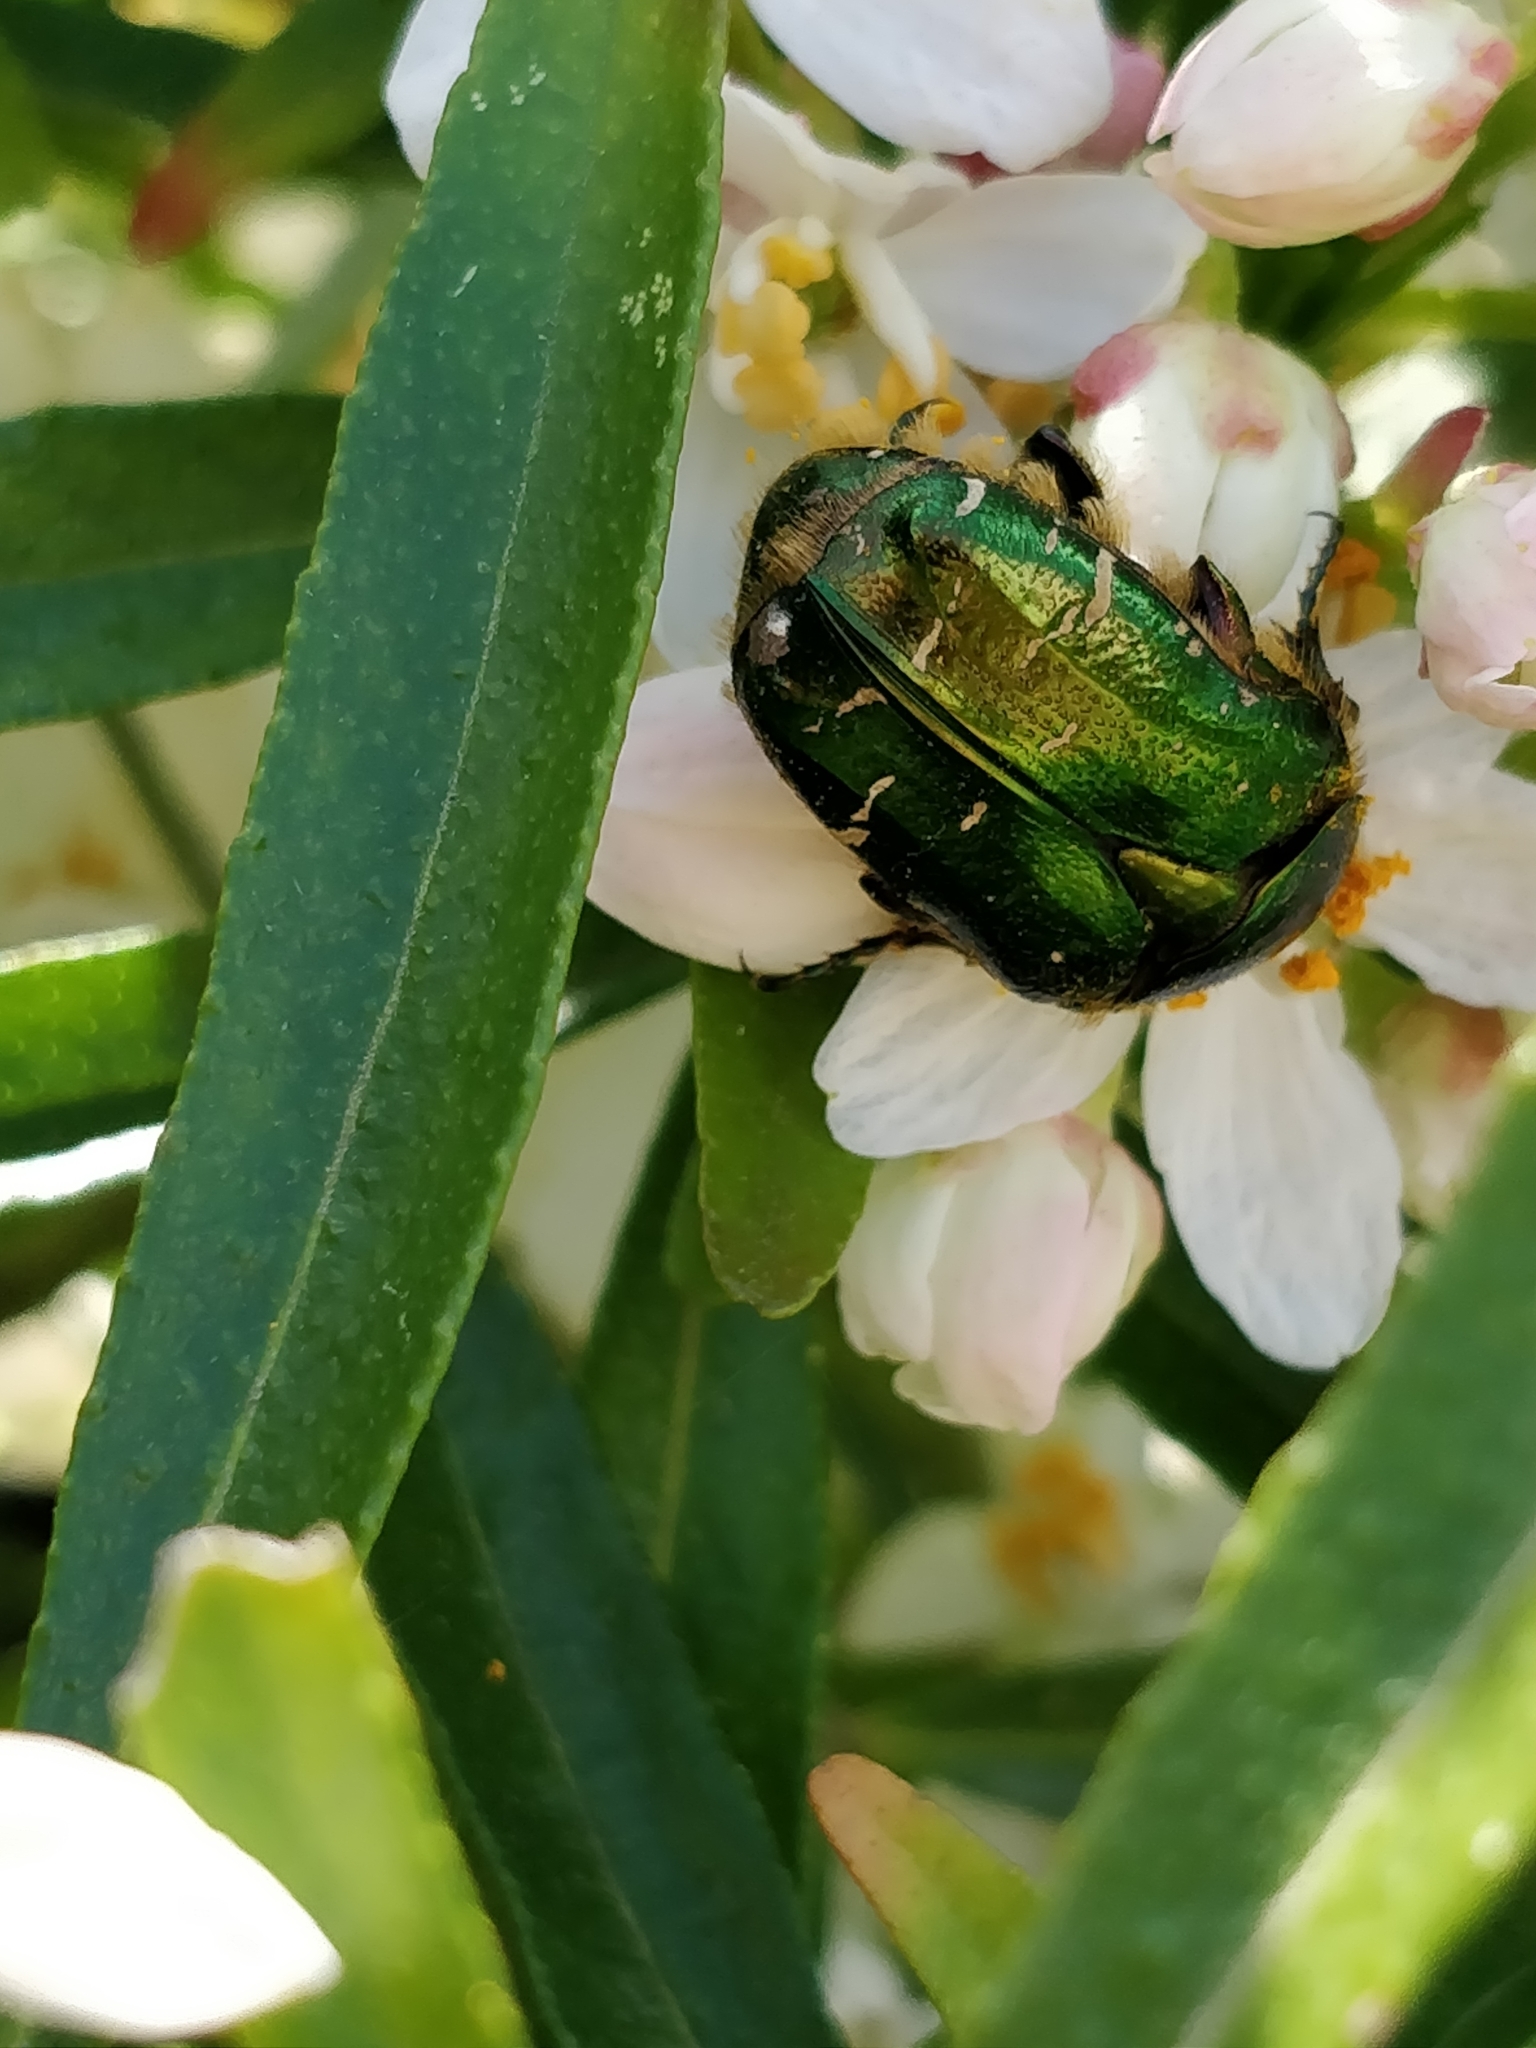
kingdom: Animalia
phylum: Arthropoda
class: Insecta
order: Coleoptera
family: Scarabaeidae
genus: Cetonia
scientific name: Cetonia aurata
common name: Rose chafer
